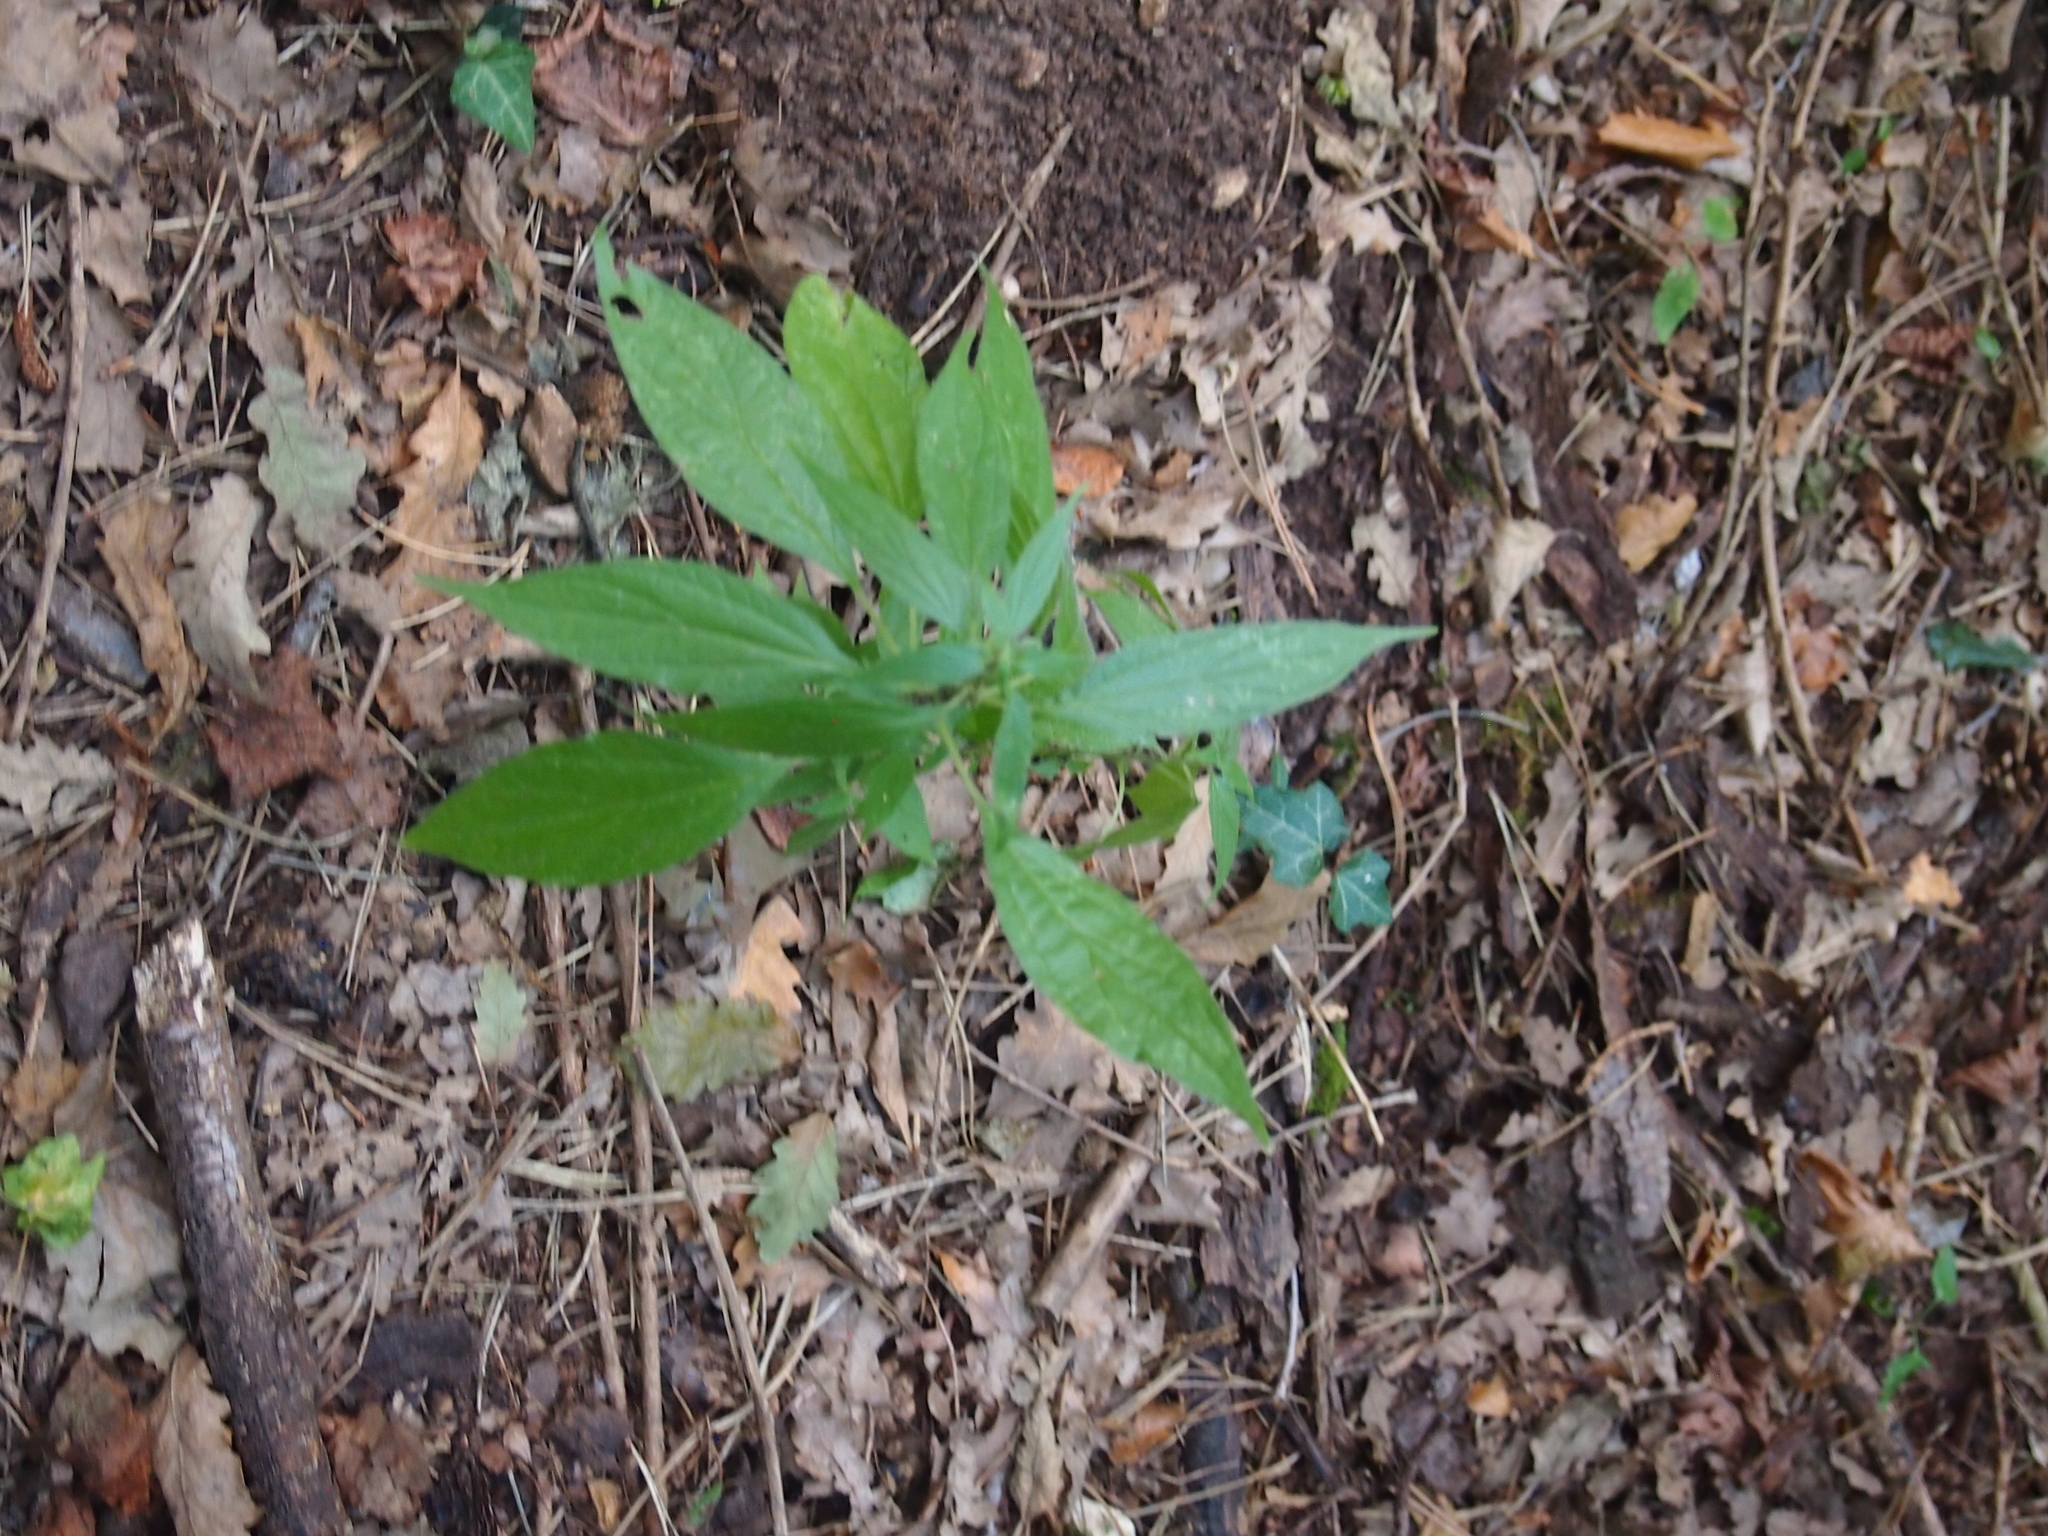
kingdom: Plantae
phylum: Tracheophyta
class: Magnoliopsida
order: Rosales
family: Urticaceae
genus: Parietaria
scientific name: Parietaria officinalis
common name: Eastern pellitory-of-the-wall
